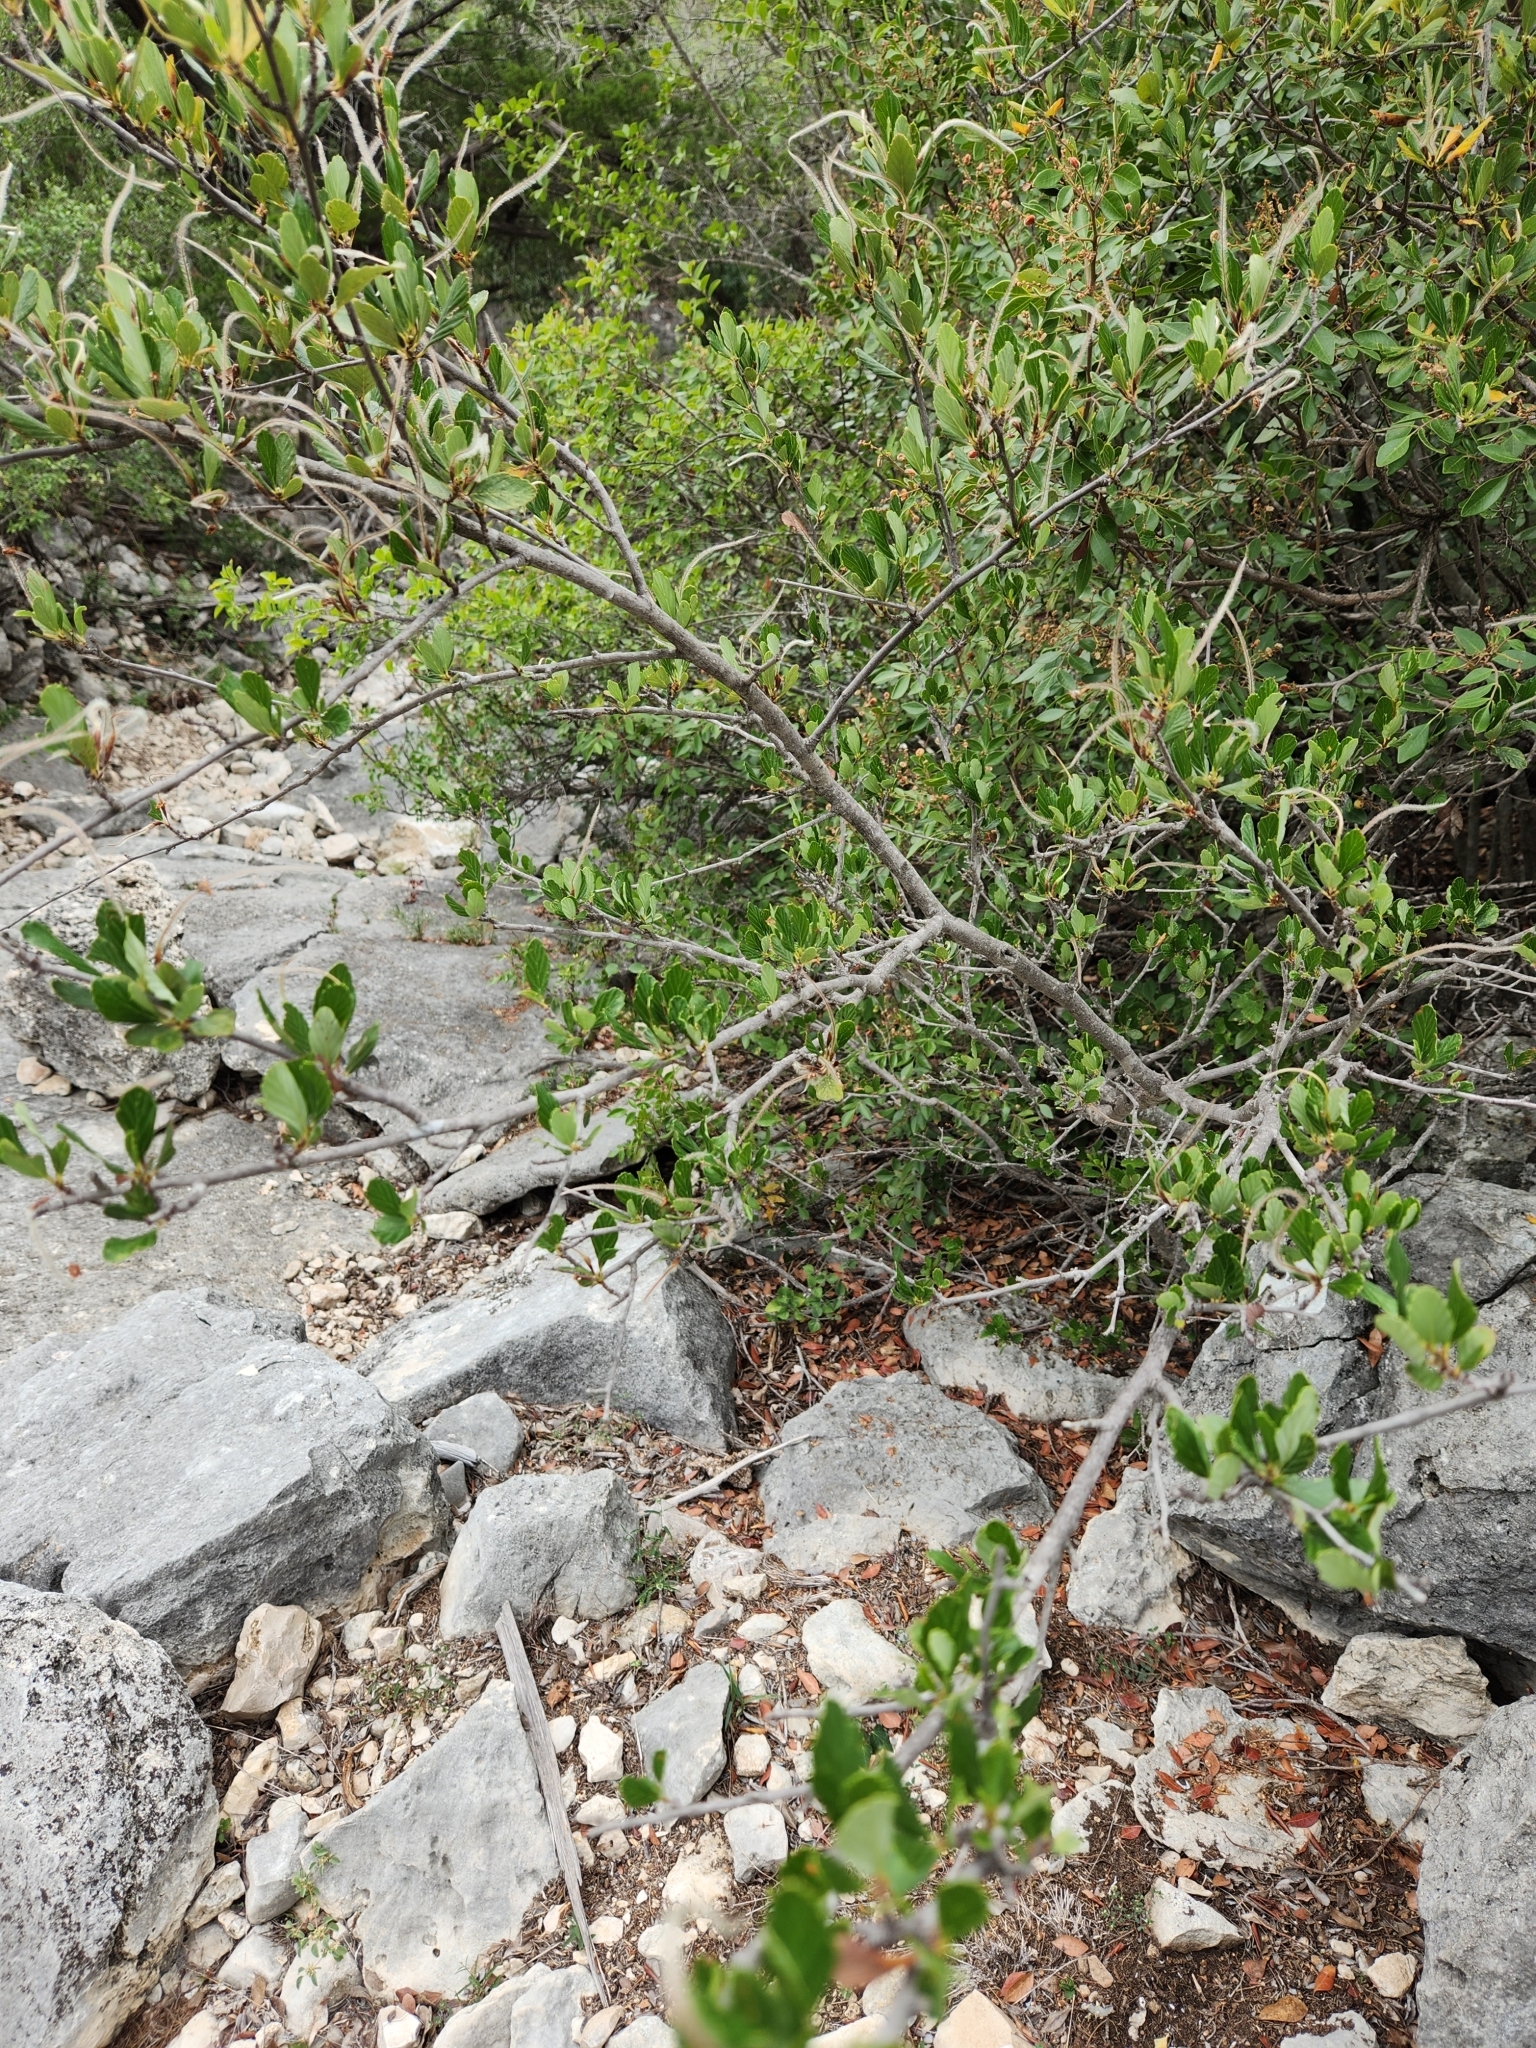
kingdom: Plantae
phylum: Tracheophyta
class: Magnoliopsida
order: Rosales
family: Rosaceae
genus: Cercocarpus
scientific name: Cercocarpus montanus
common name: Alder-leaf cercocarpus
